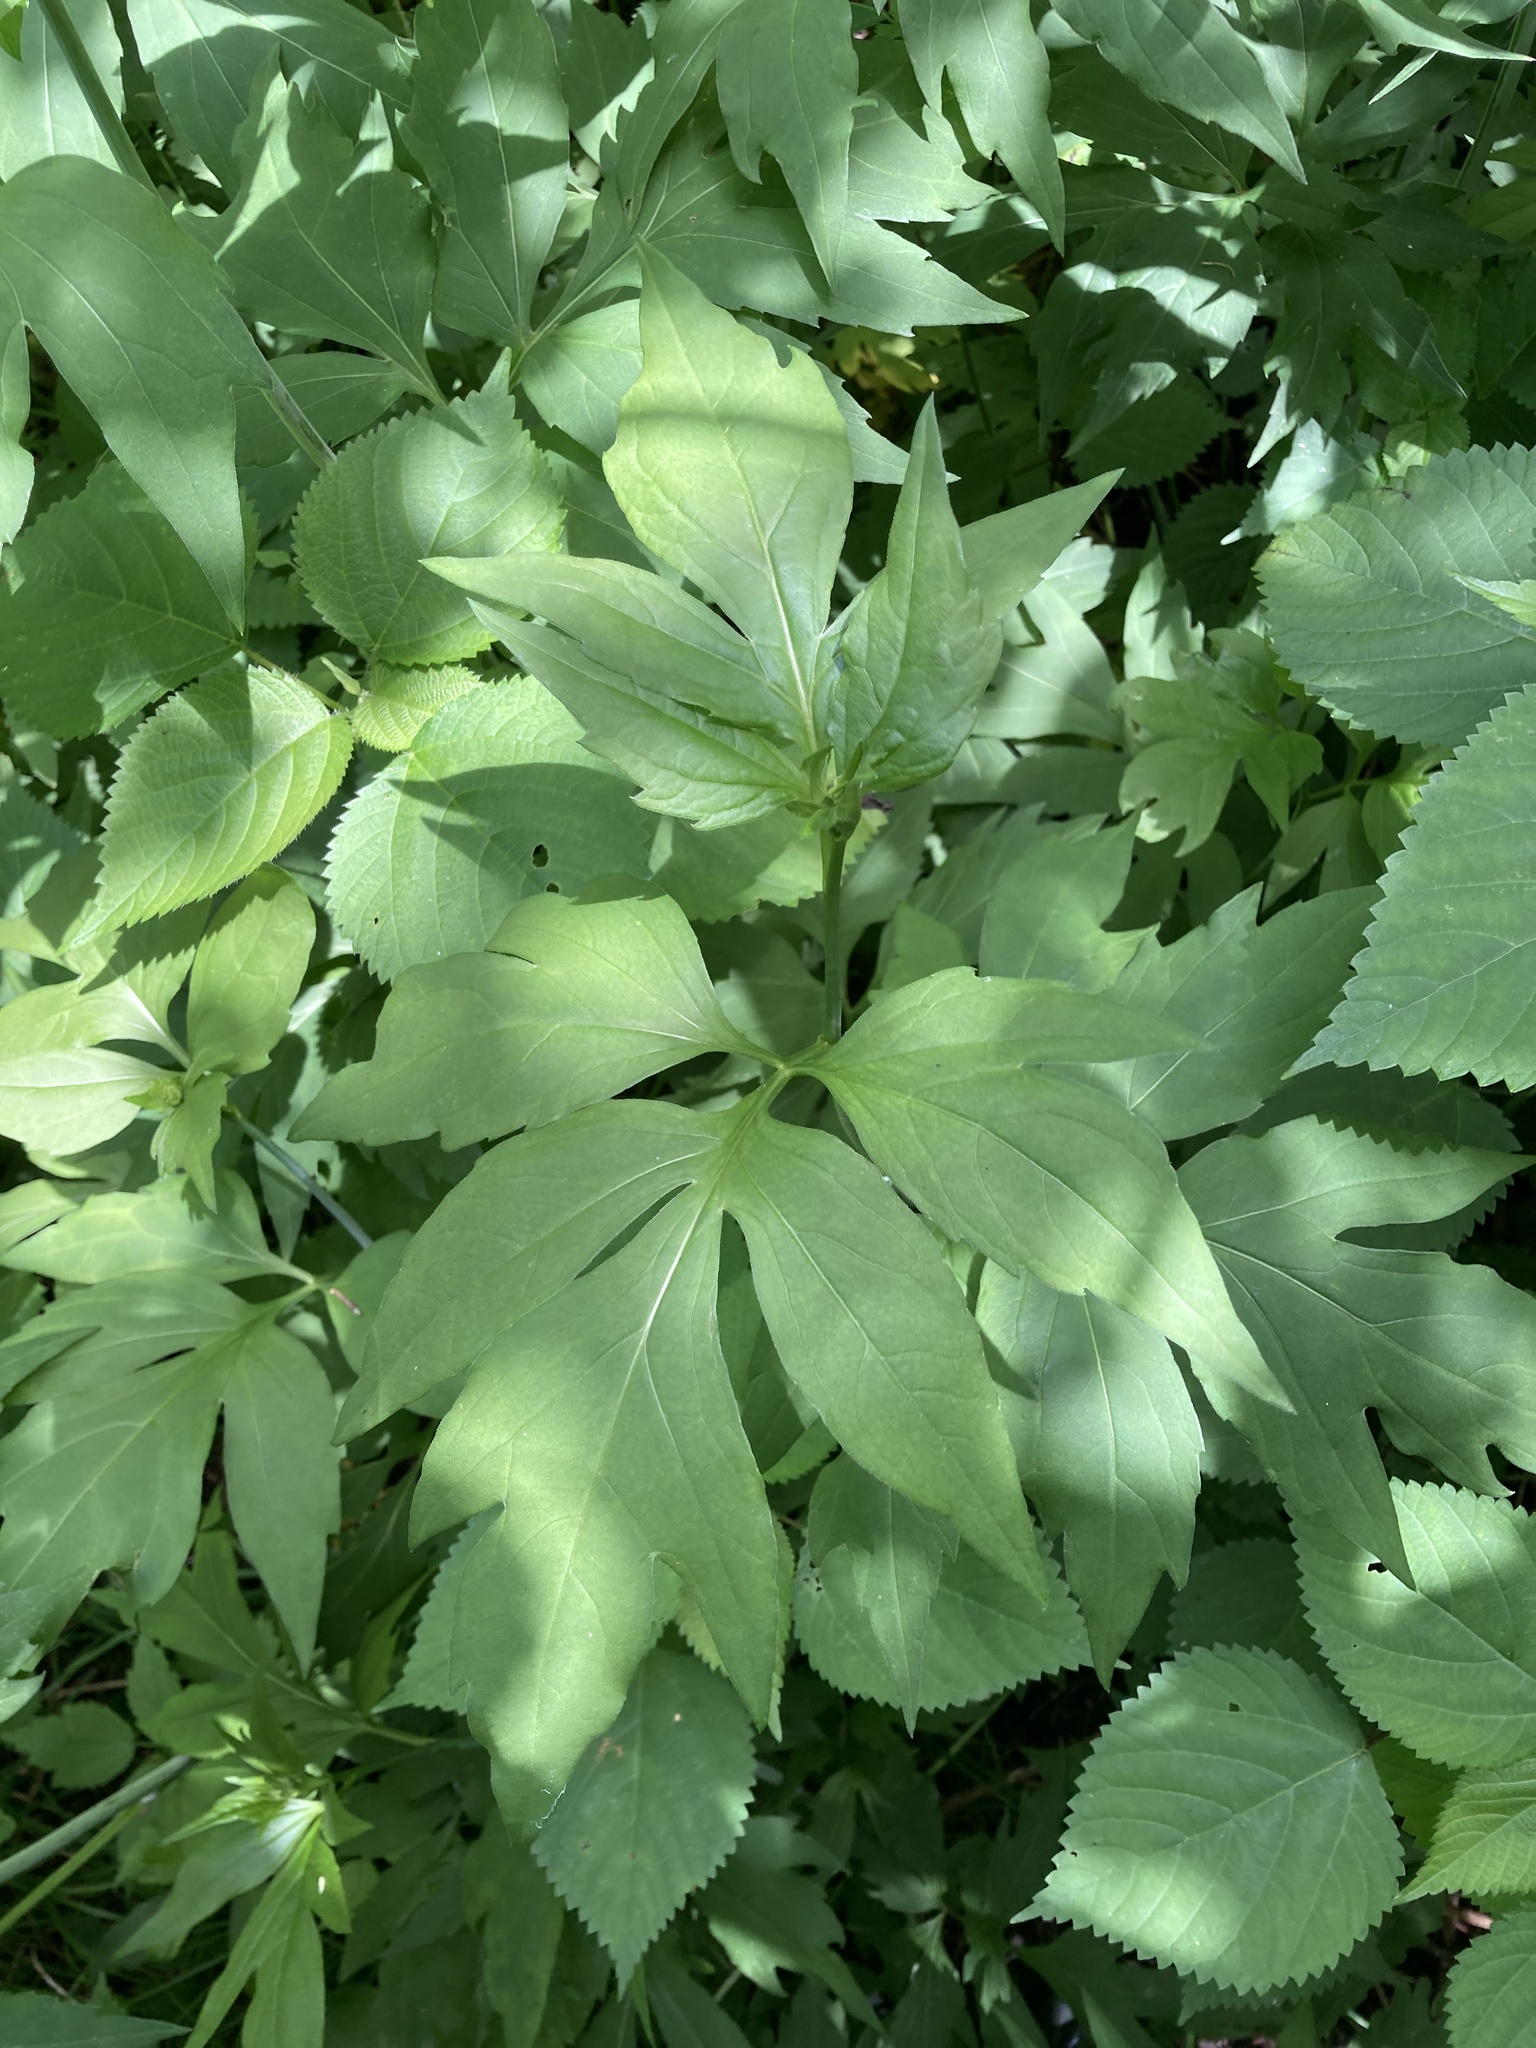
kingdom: Plantae
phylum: Tracheophyta
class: Magnoliopsida
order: Asterales
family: Asteraceae
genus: Rudbeckia
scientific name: Rudbeckia laciniata
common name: Coneflower
